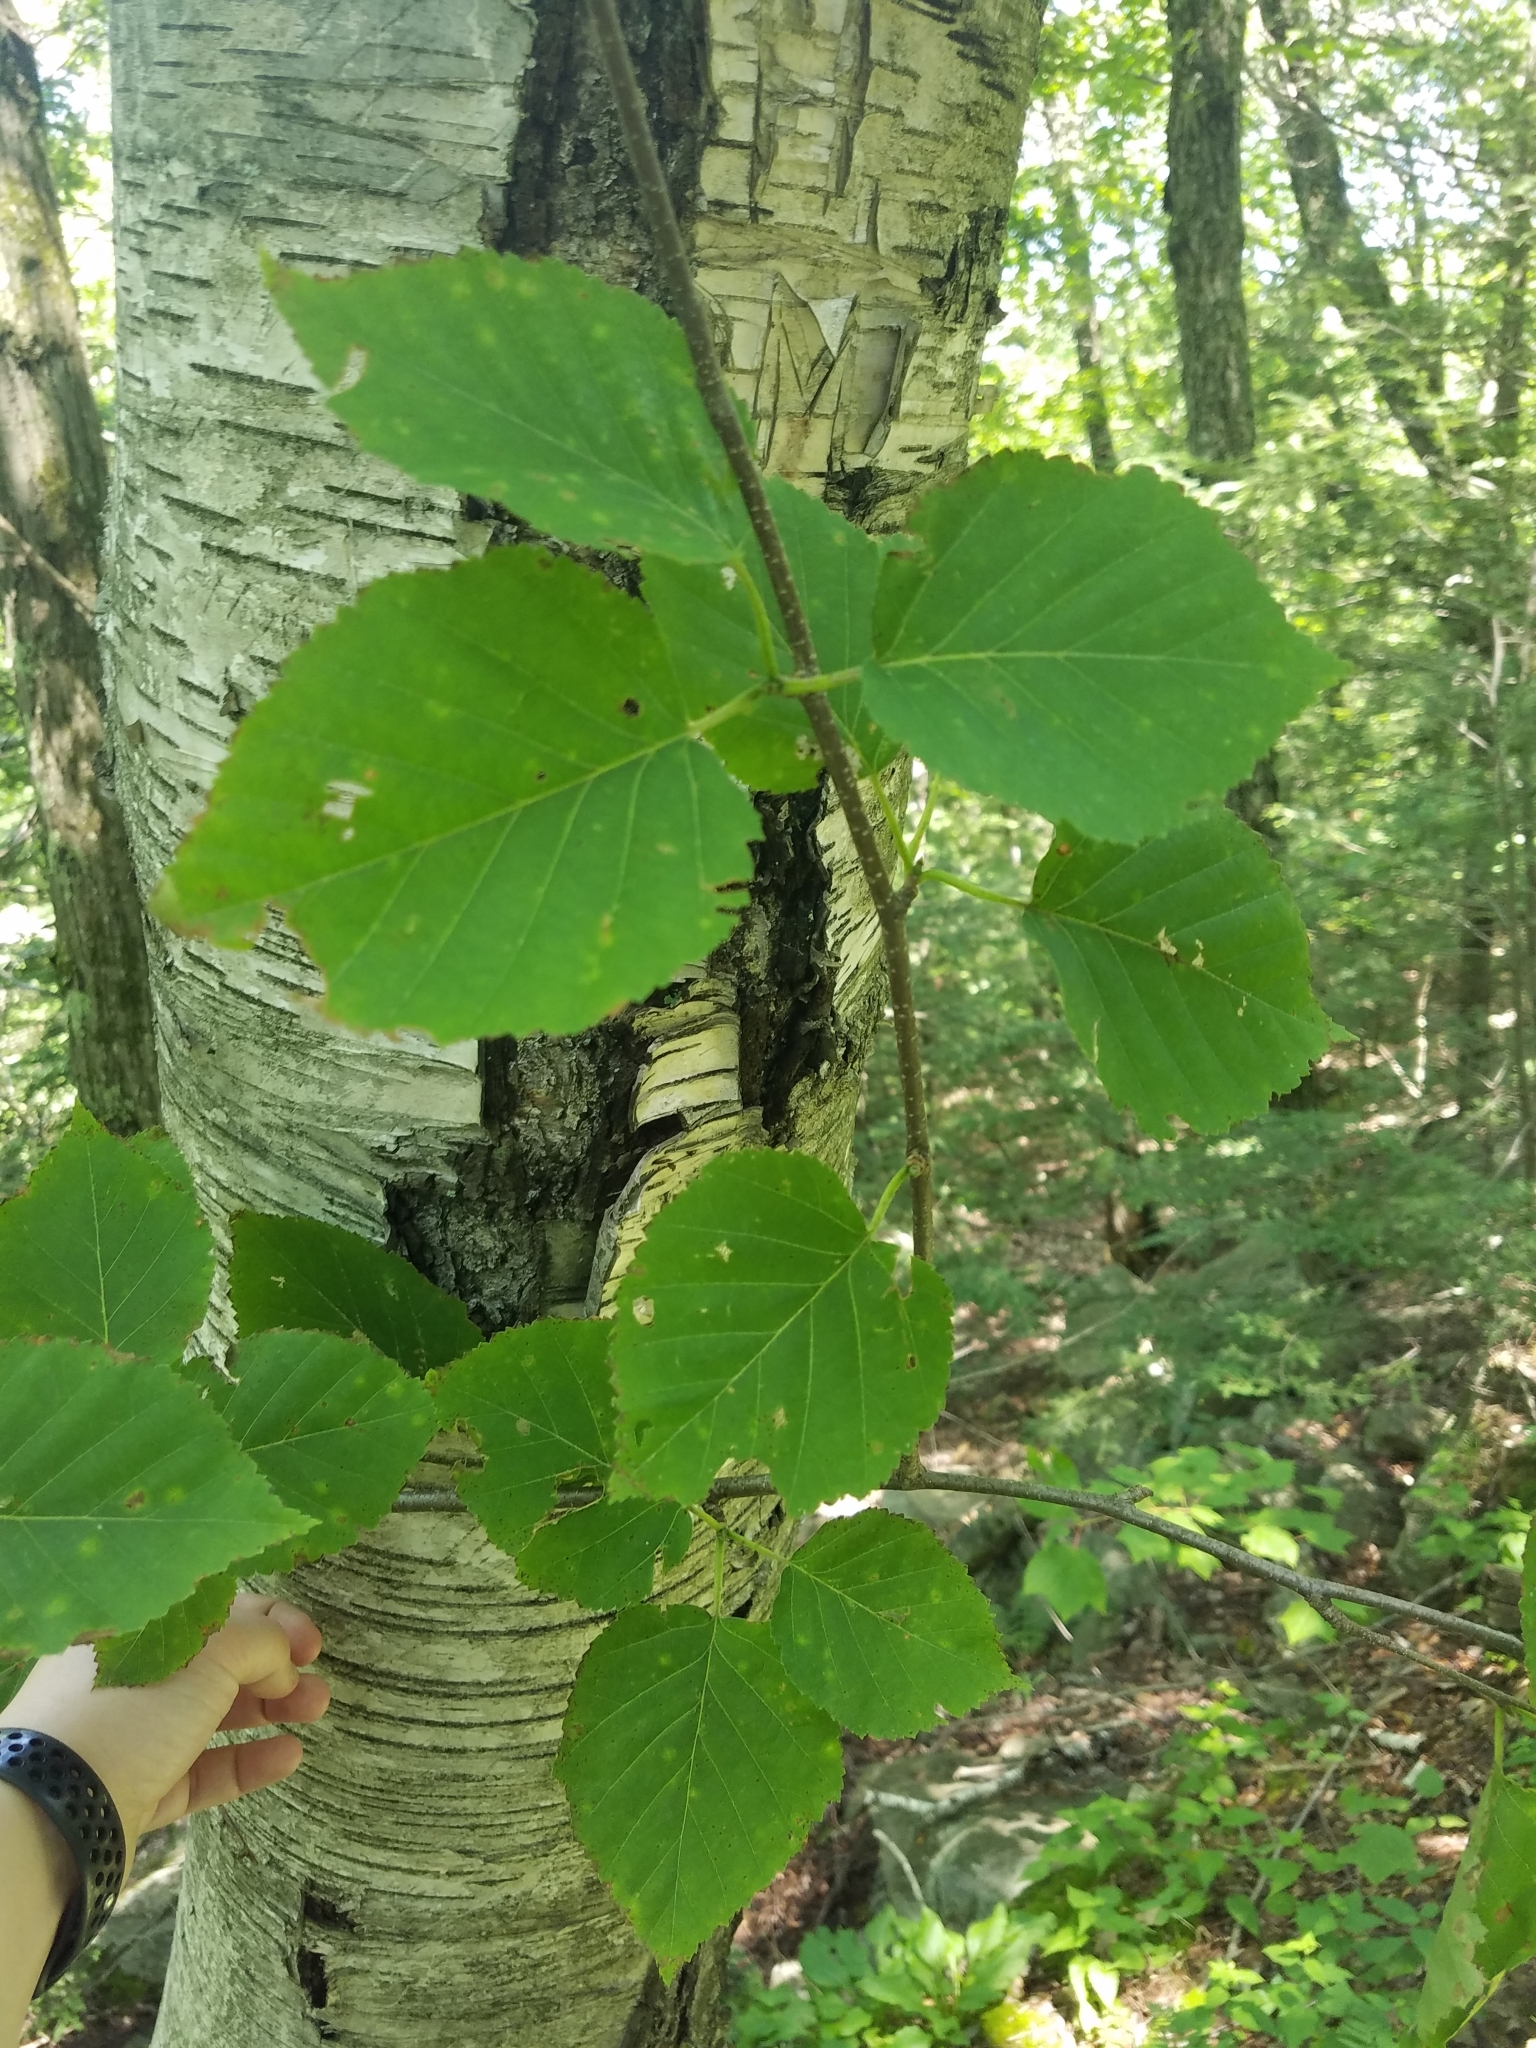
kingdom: Plantae
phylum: Tracheophyta
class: Magnoliopsida
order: Fagales
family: Betulaceae
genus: Betula
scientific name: Betula papyrifera
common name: Paper birch
